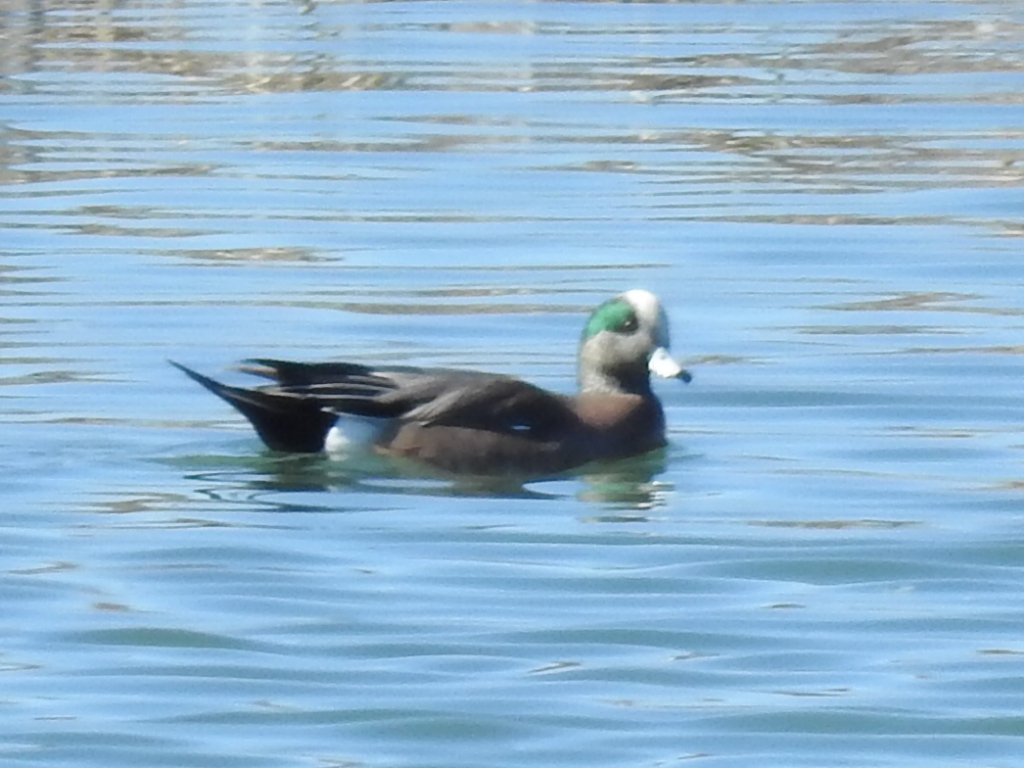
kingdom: Animalia
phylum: Chordata
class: Aves
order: Anseriformes
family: Anatidae
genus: Mareca
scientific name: Mareca americana
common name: American wigeon
